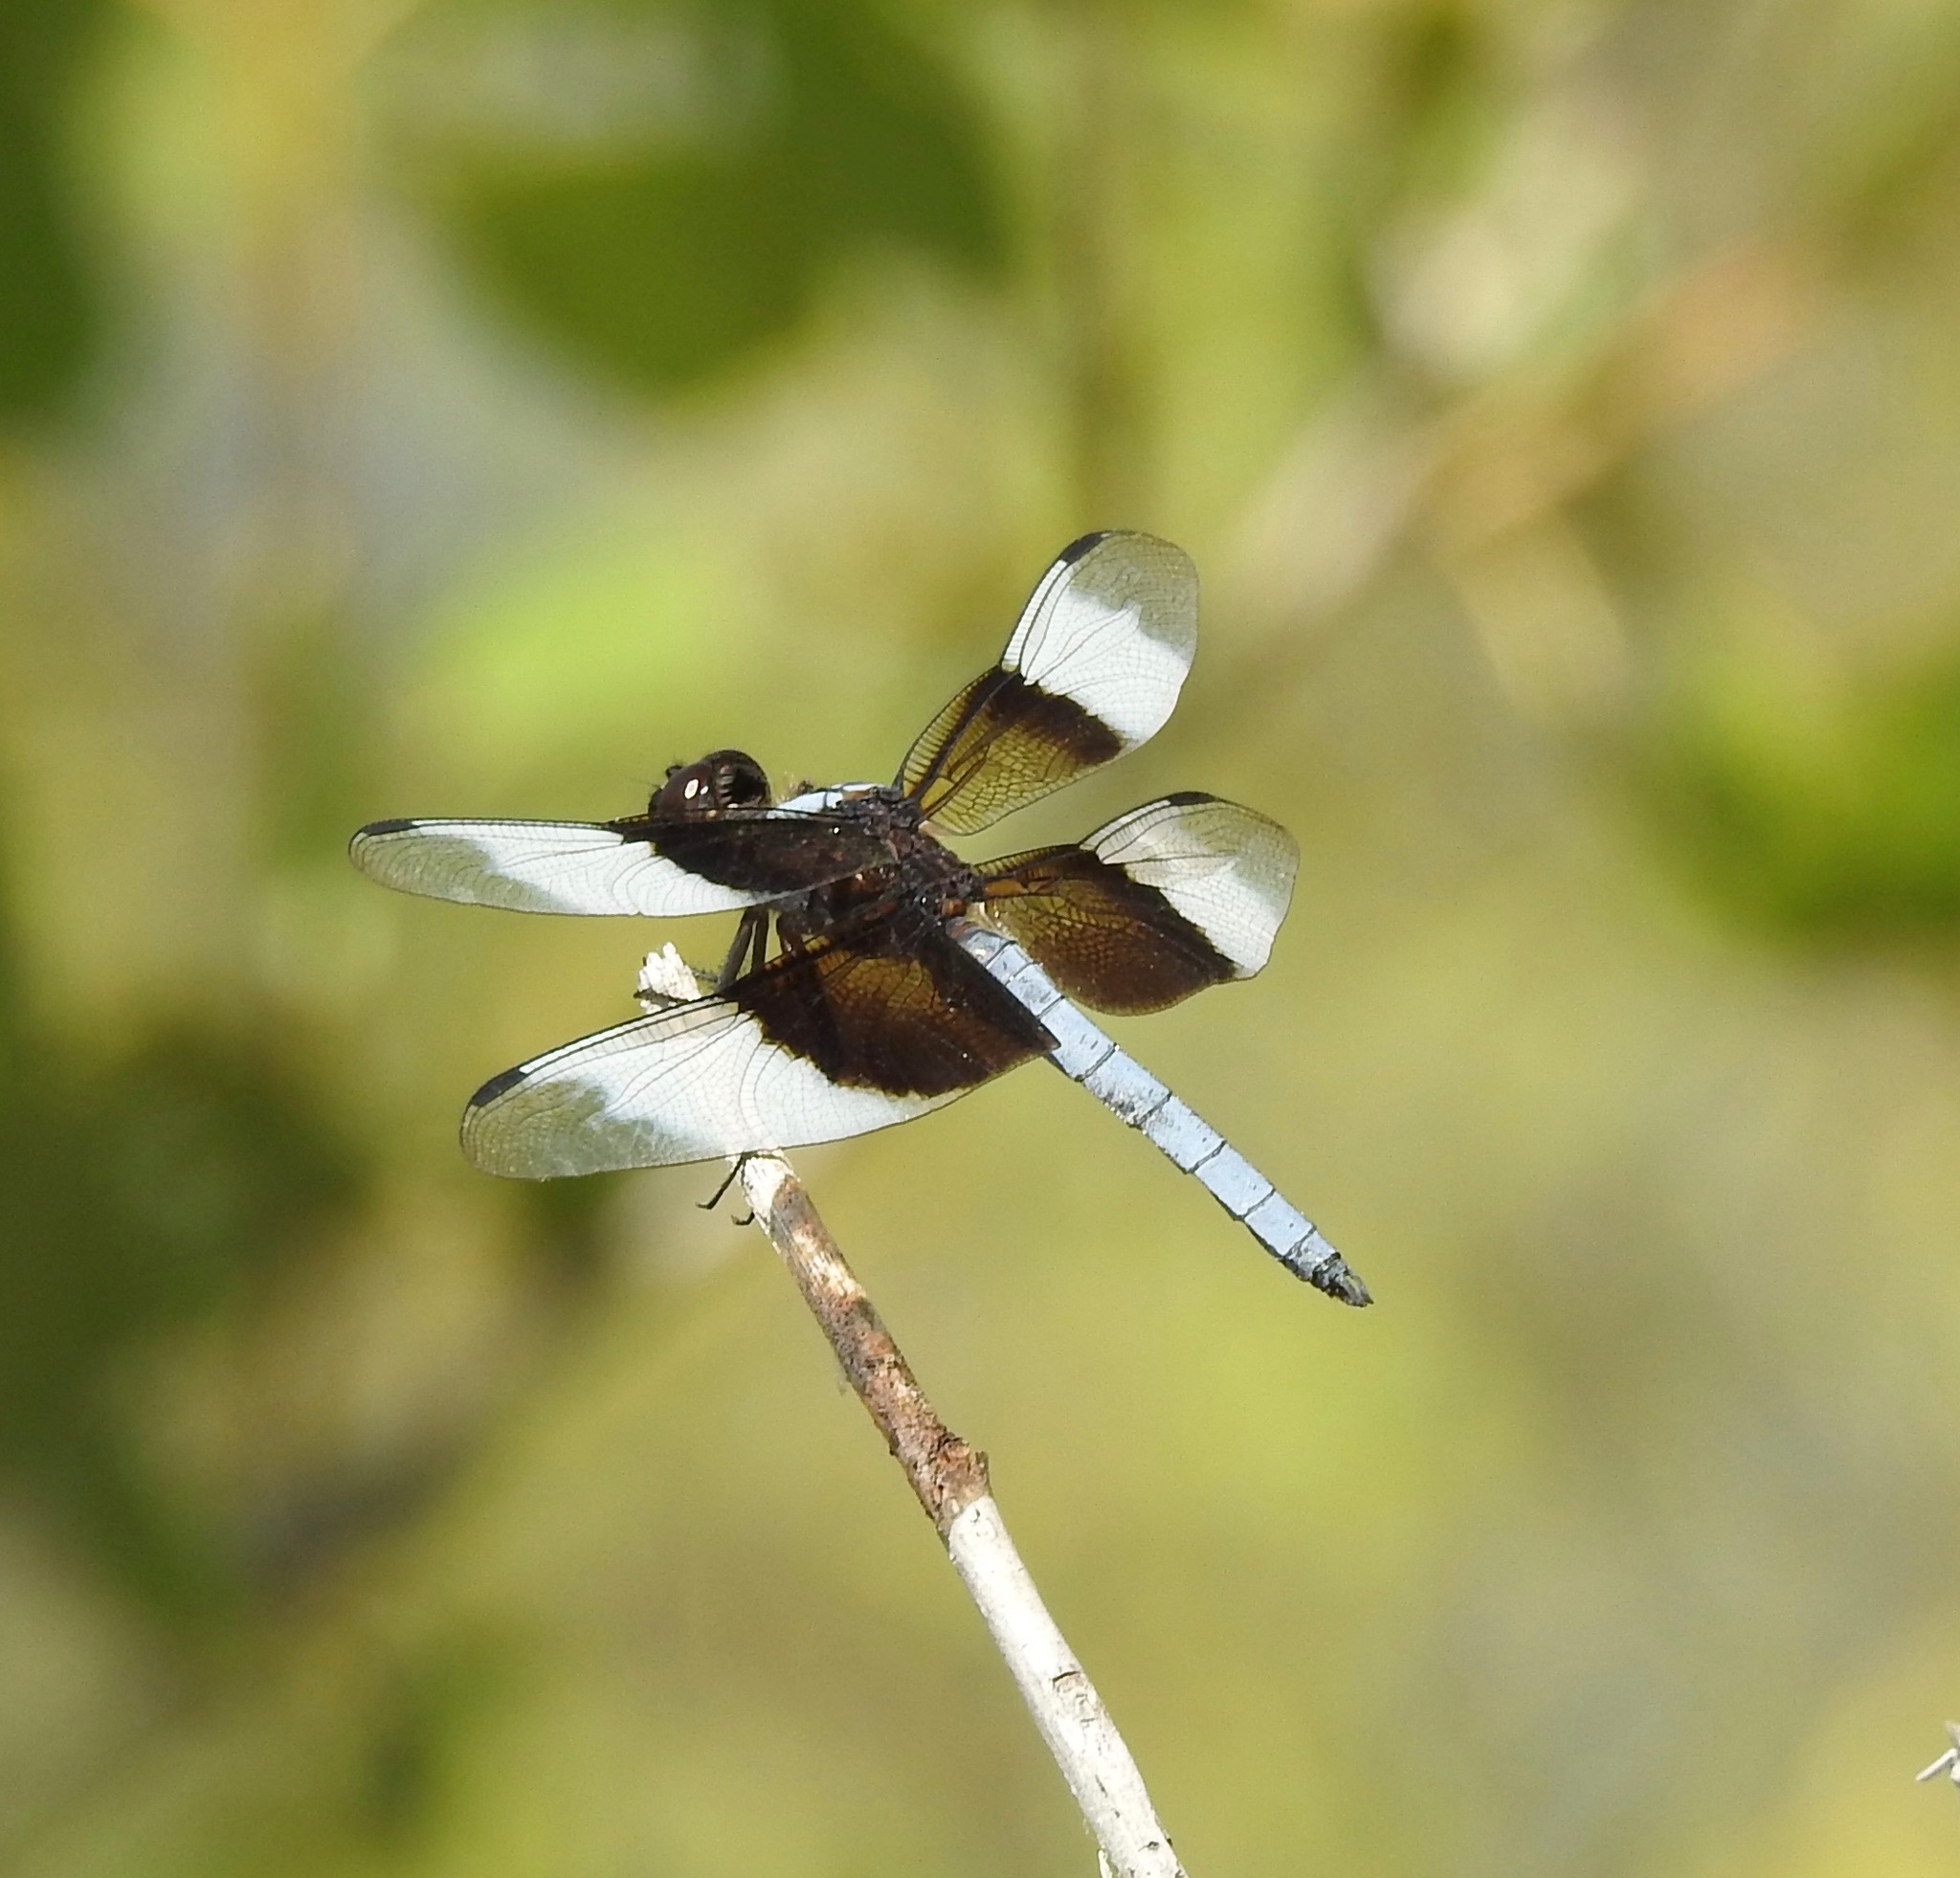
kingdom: Animalia
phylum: Arthropoda
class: Insecta
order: Odonata
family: Libellulidae
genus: Libellula
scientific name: Libellula luctuosa
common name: Widow skimmer
